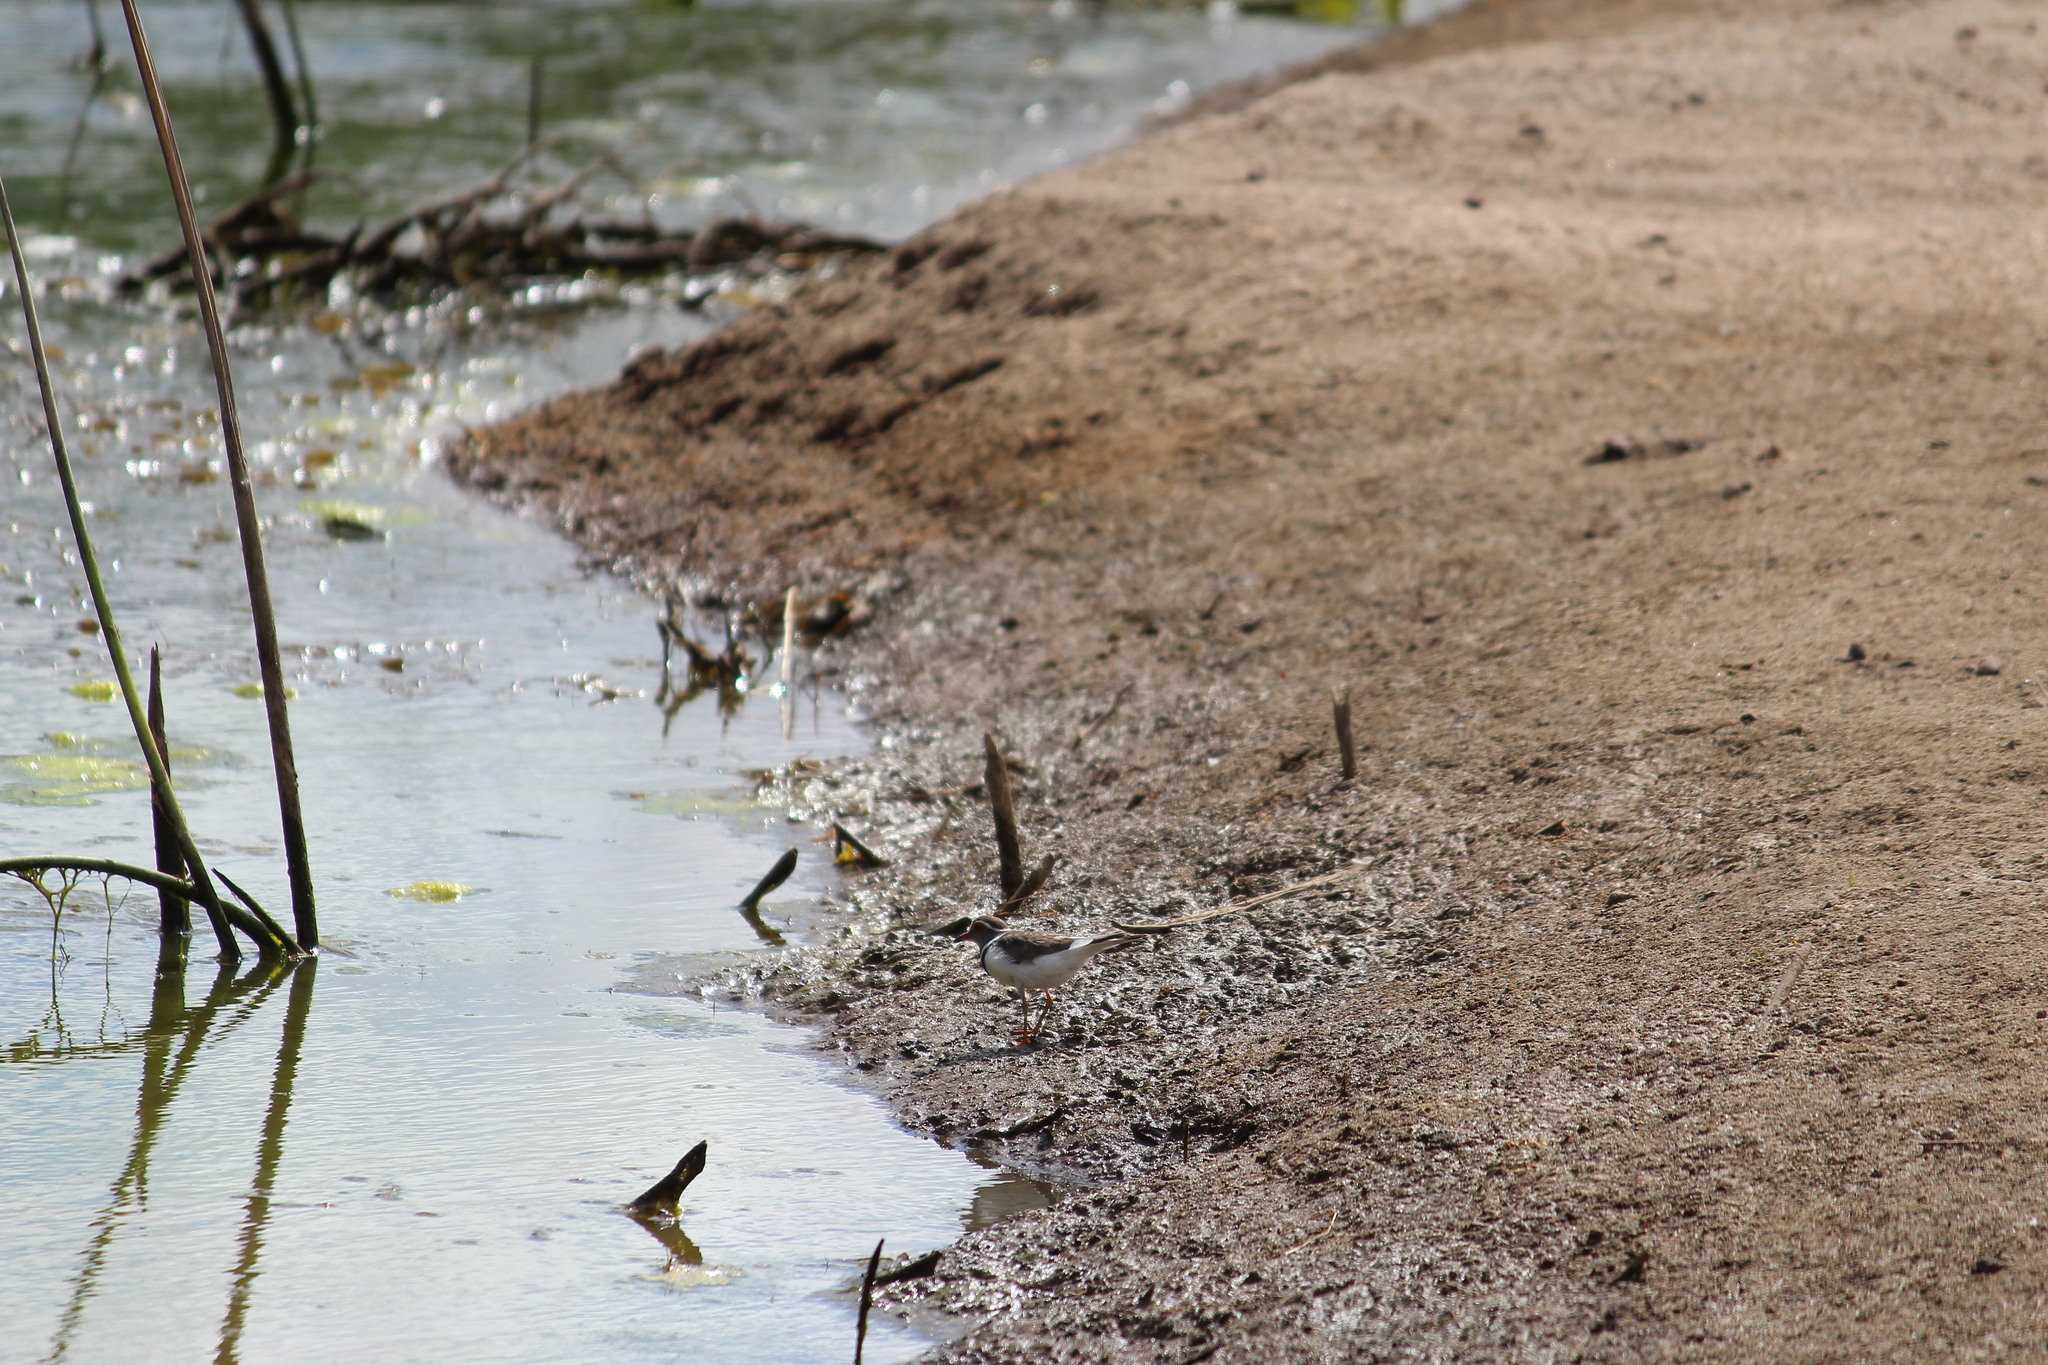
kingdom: Animalia
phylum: Chordata
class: Aves
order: Charadriiformes
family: Charadriidae
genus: Charadrius
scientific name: Charadrius tricollaris
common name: Three-banded plover
